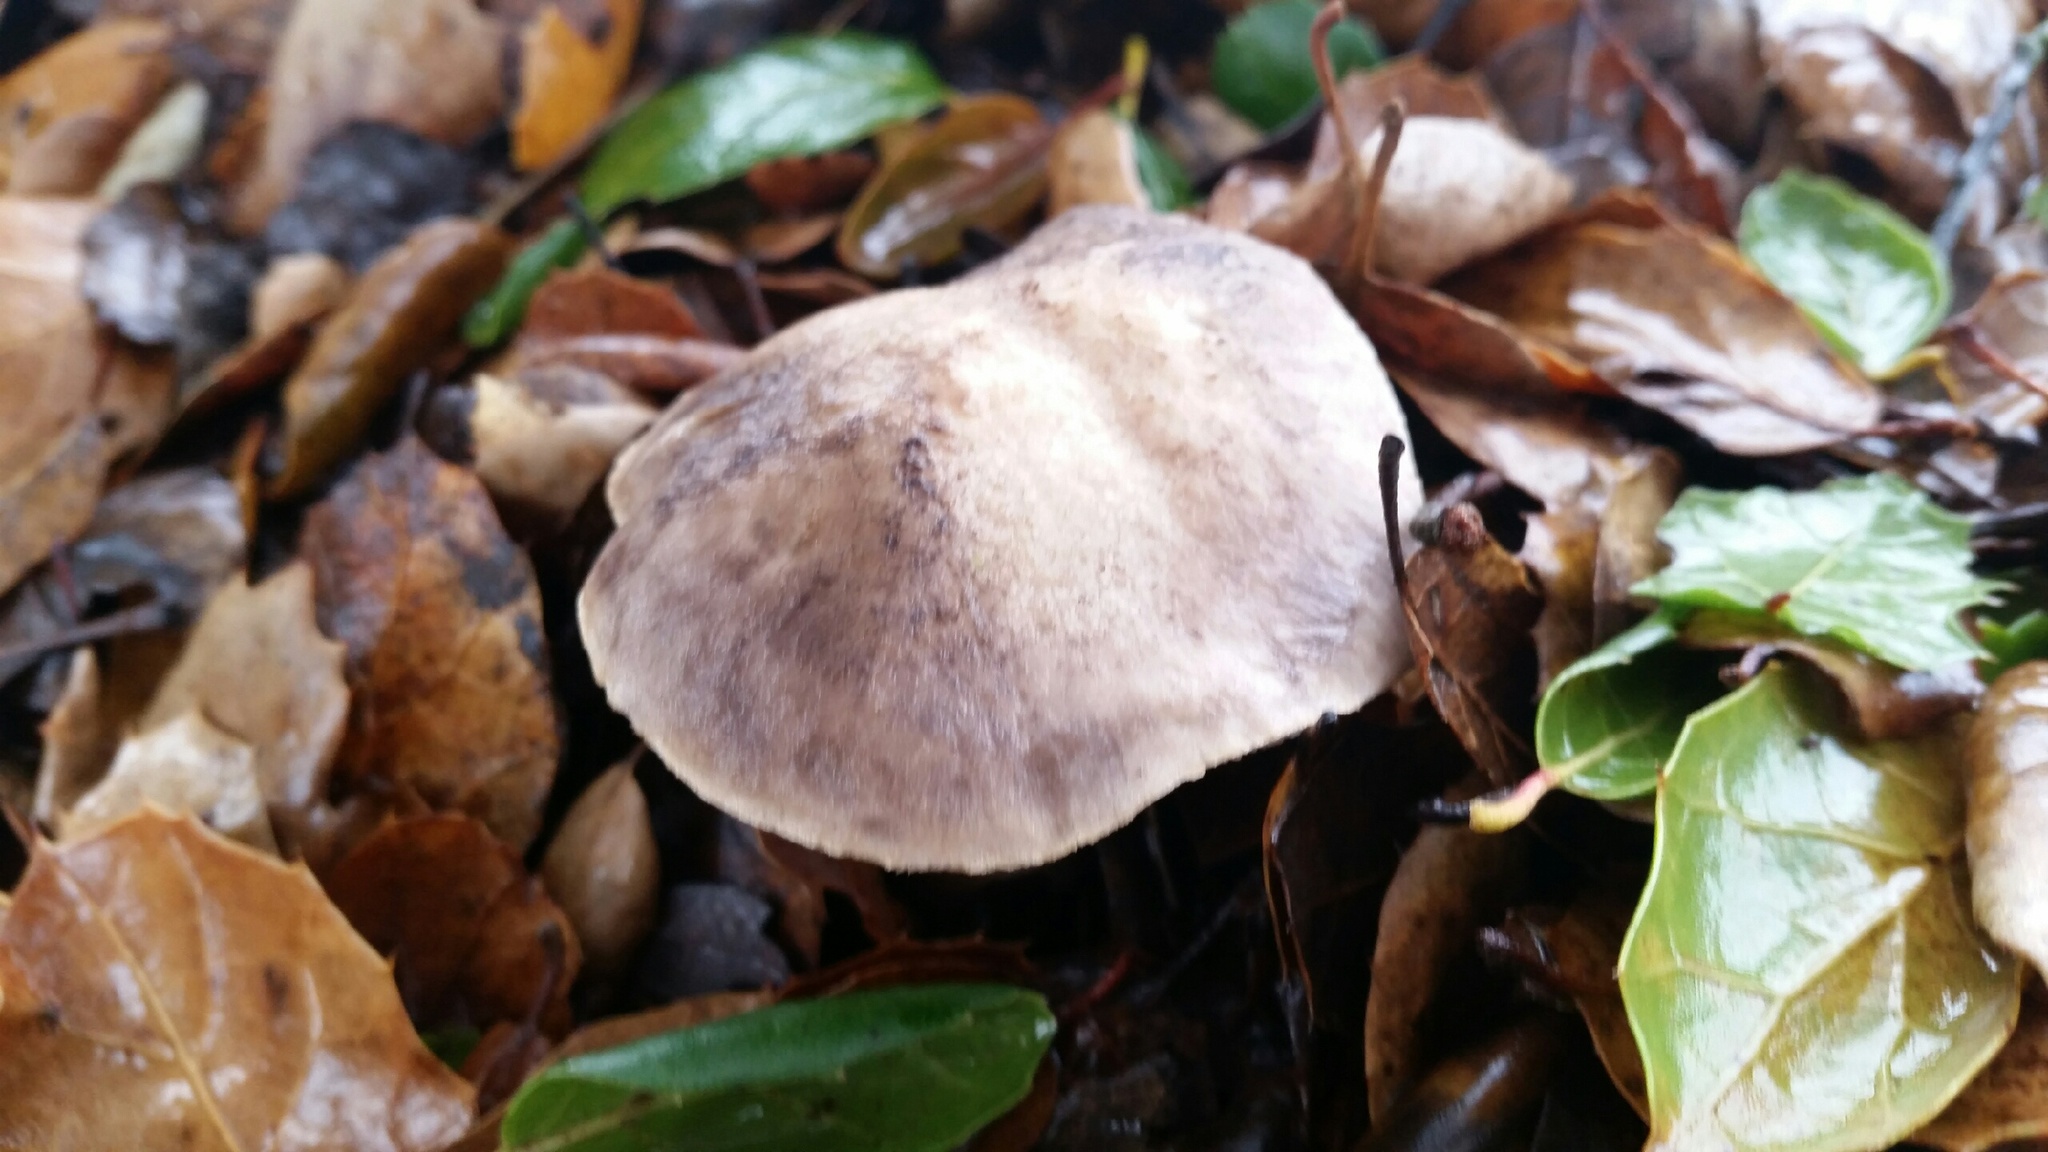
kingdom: Fungi
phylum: Basidiomycota
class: Agaricomycetes
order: Agaricales
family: Tricholomataceae
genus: Tricholoma
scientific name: Tricholoma griseoviolaceum
